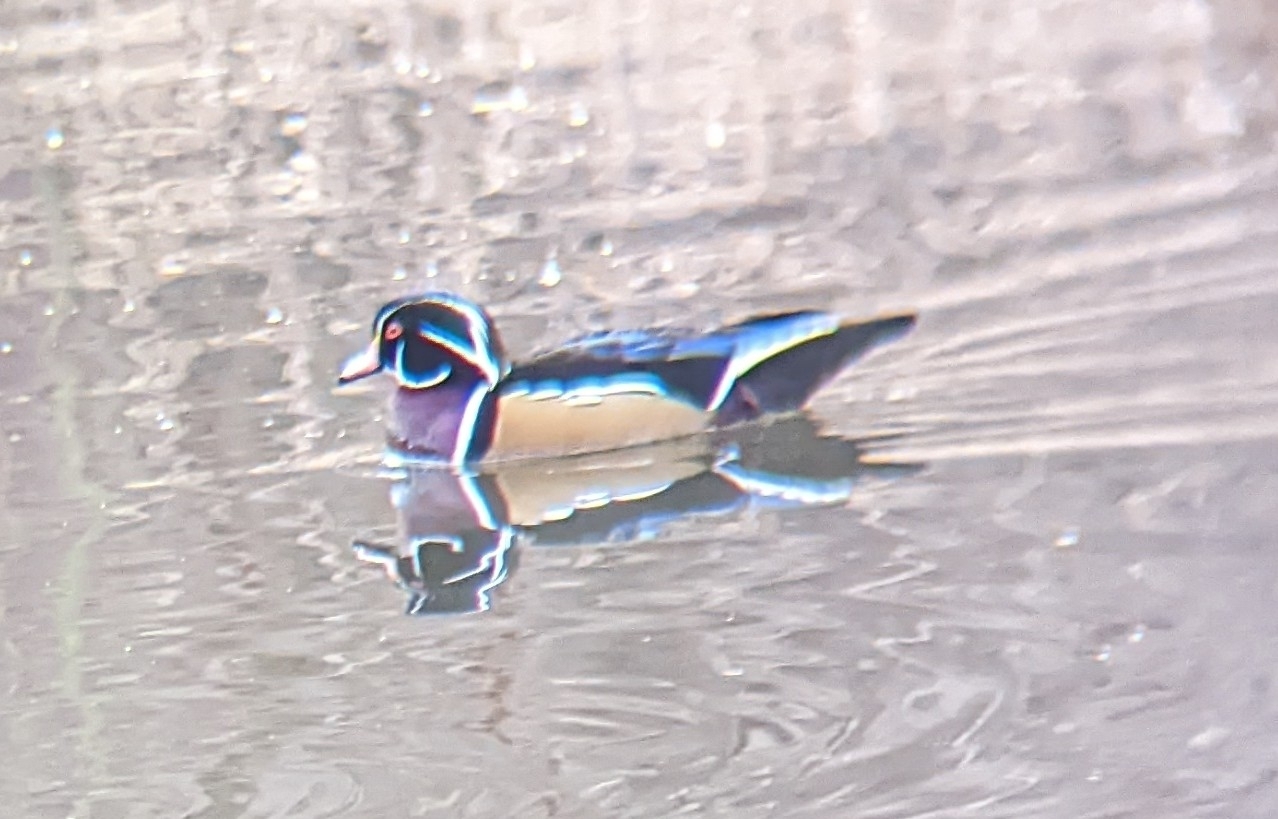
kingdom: Animalia
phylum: Chordata
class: Aves
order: Anseriformes
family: Anatidae
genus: Aix
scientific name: Aix sponsa
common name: Wood duck
